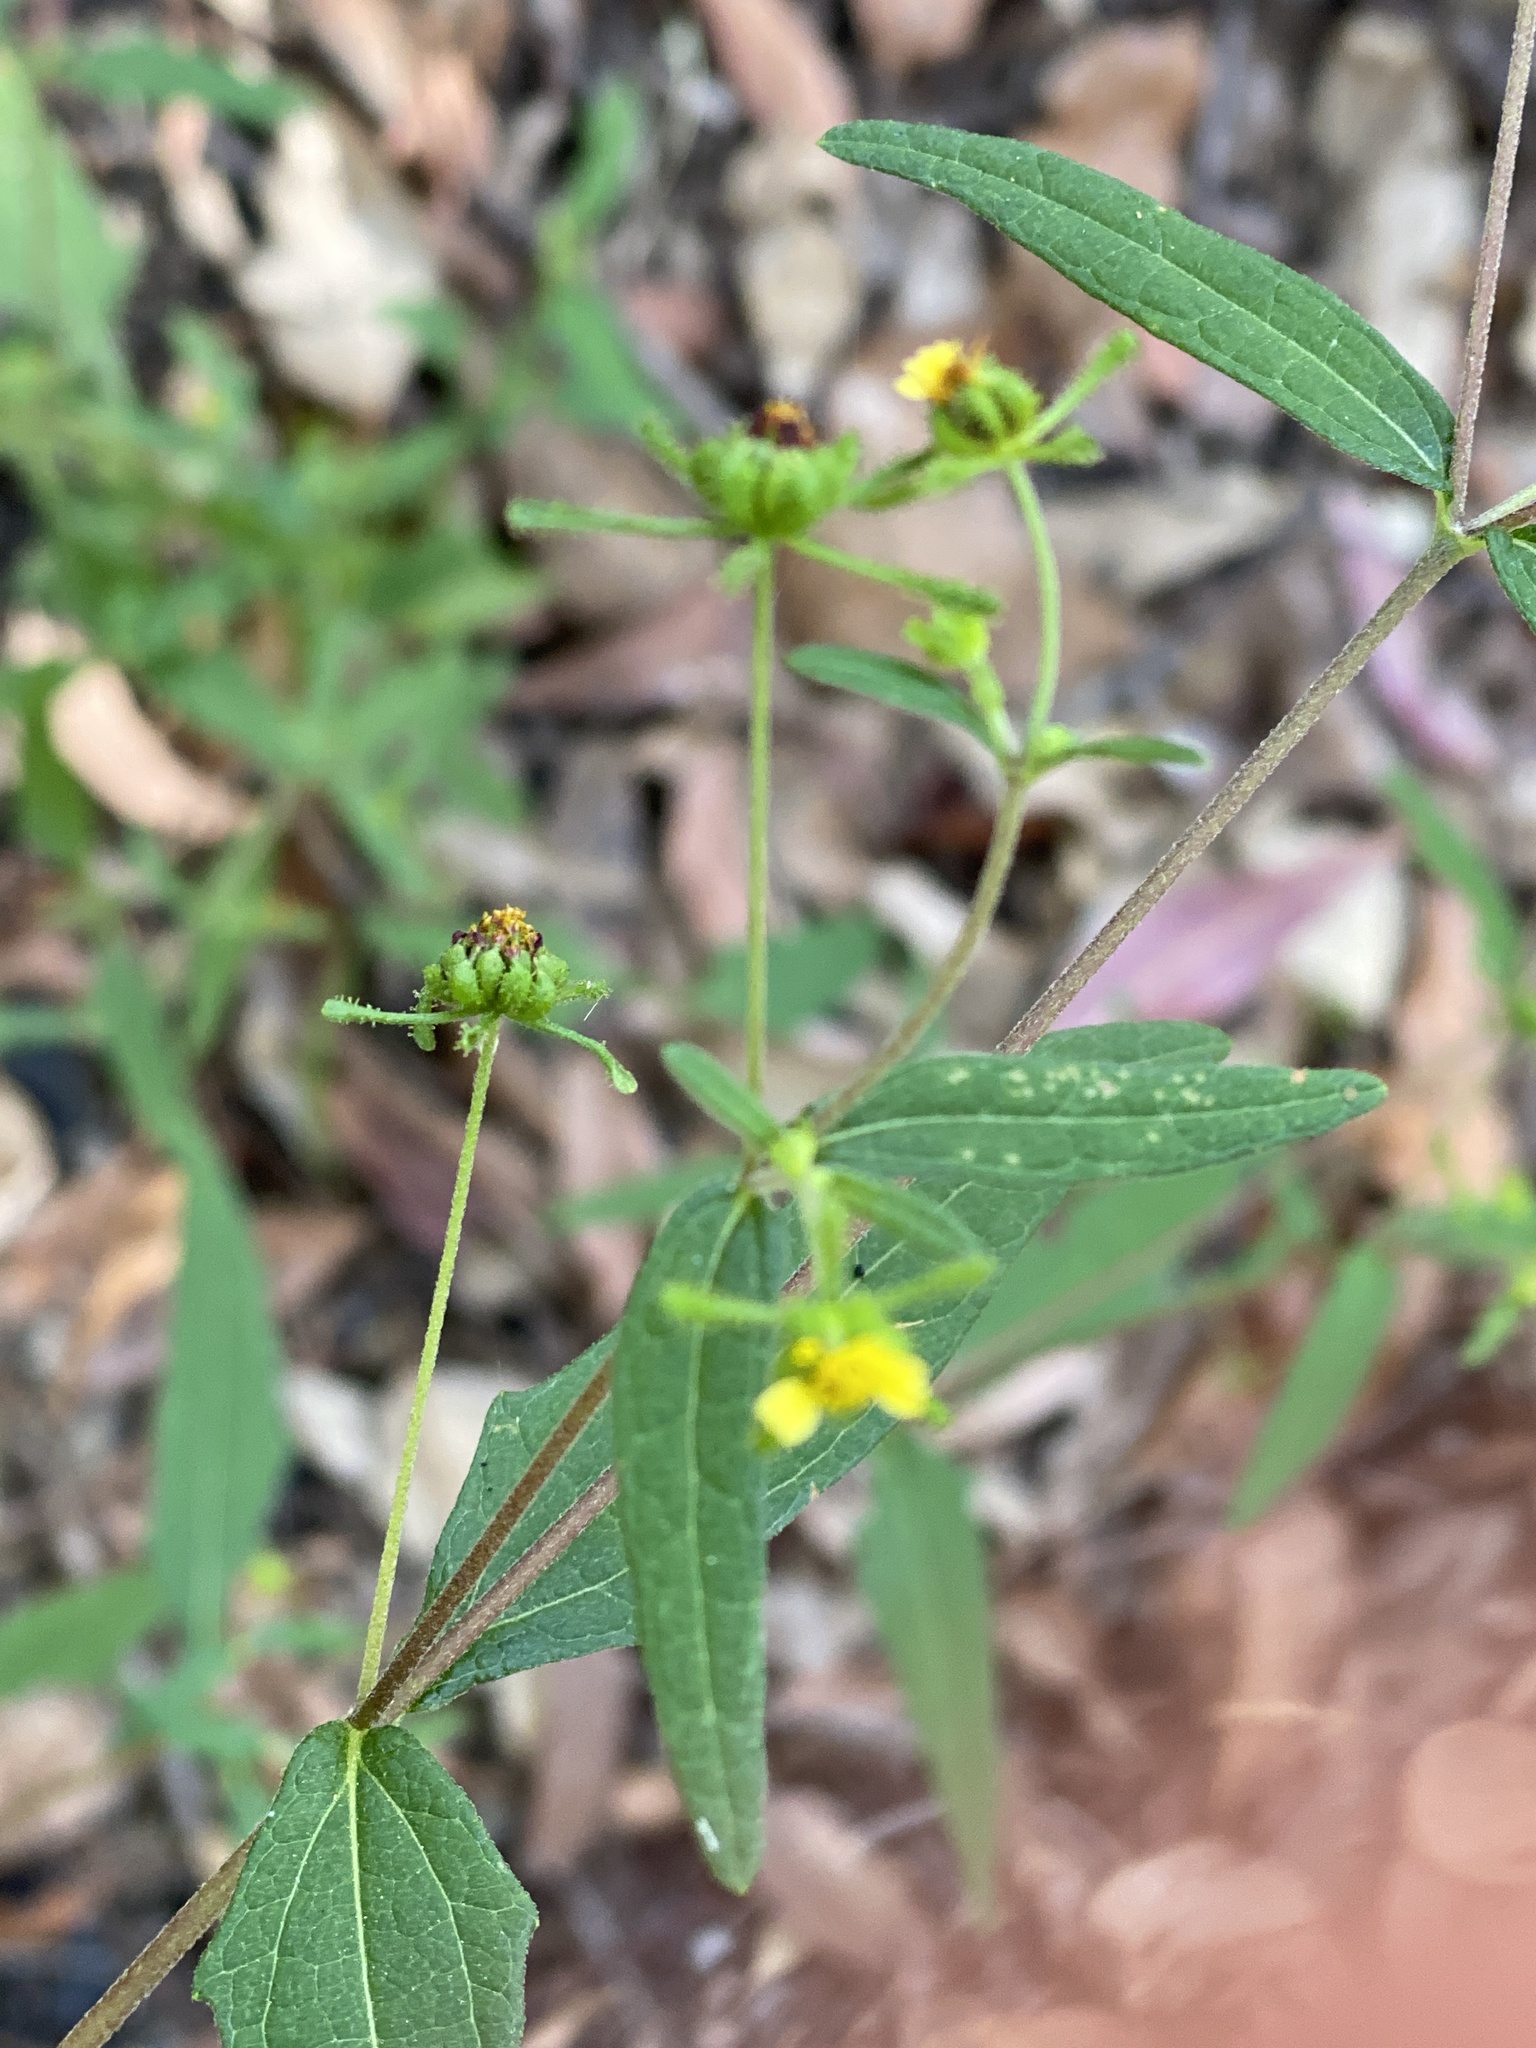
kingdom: Plantae
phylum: Tracheophyta
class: Magnoliopsida
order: Asterales
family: Asteraceae
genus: Sigesbeckia
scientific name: Sigesbeckia orientalis
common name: Eastern st paul's-wort
